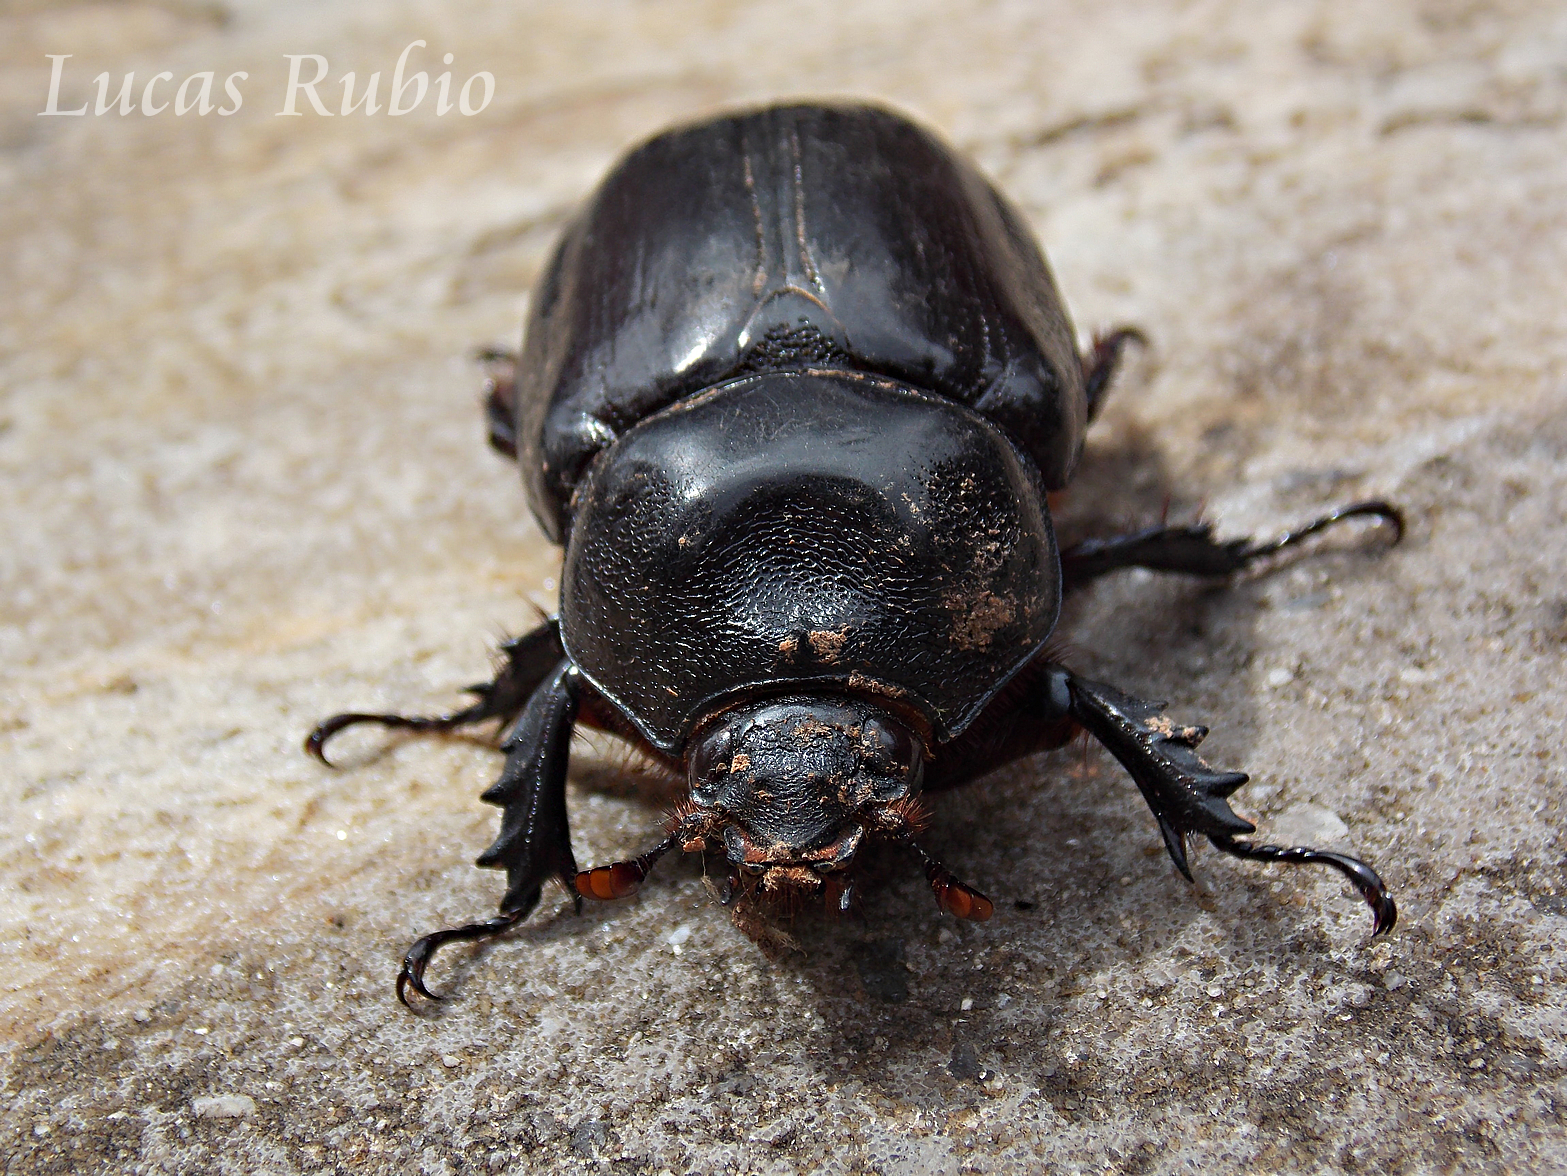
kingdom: Animalia
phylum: Arthropoda
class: Insecta
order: Coleoptera
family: Scarabaeidae
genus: Strategus
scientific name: Strategus centaurus
